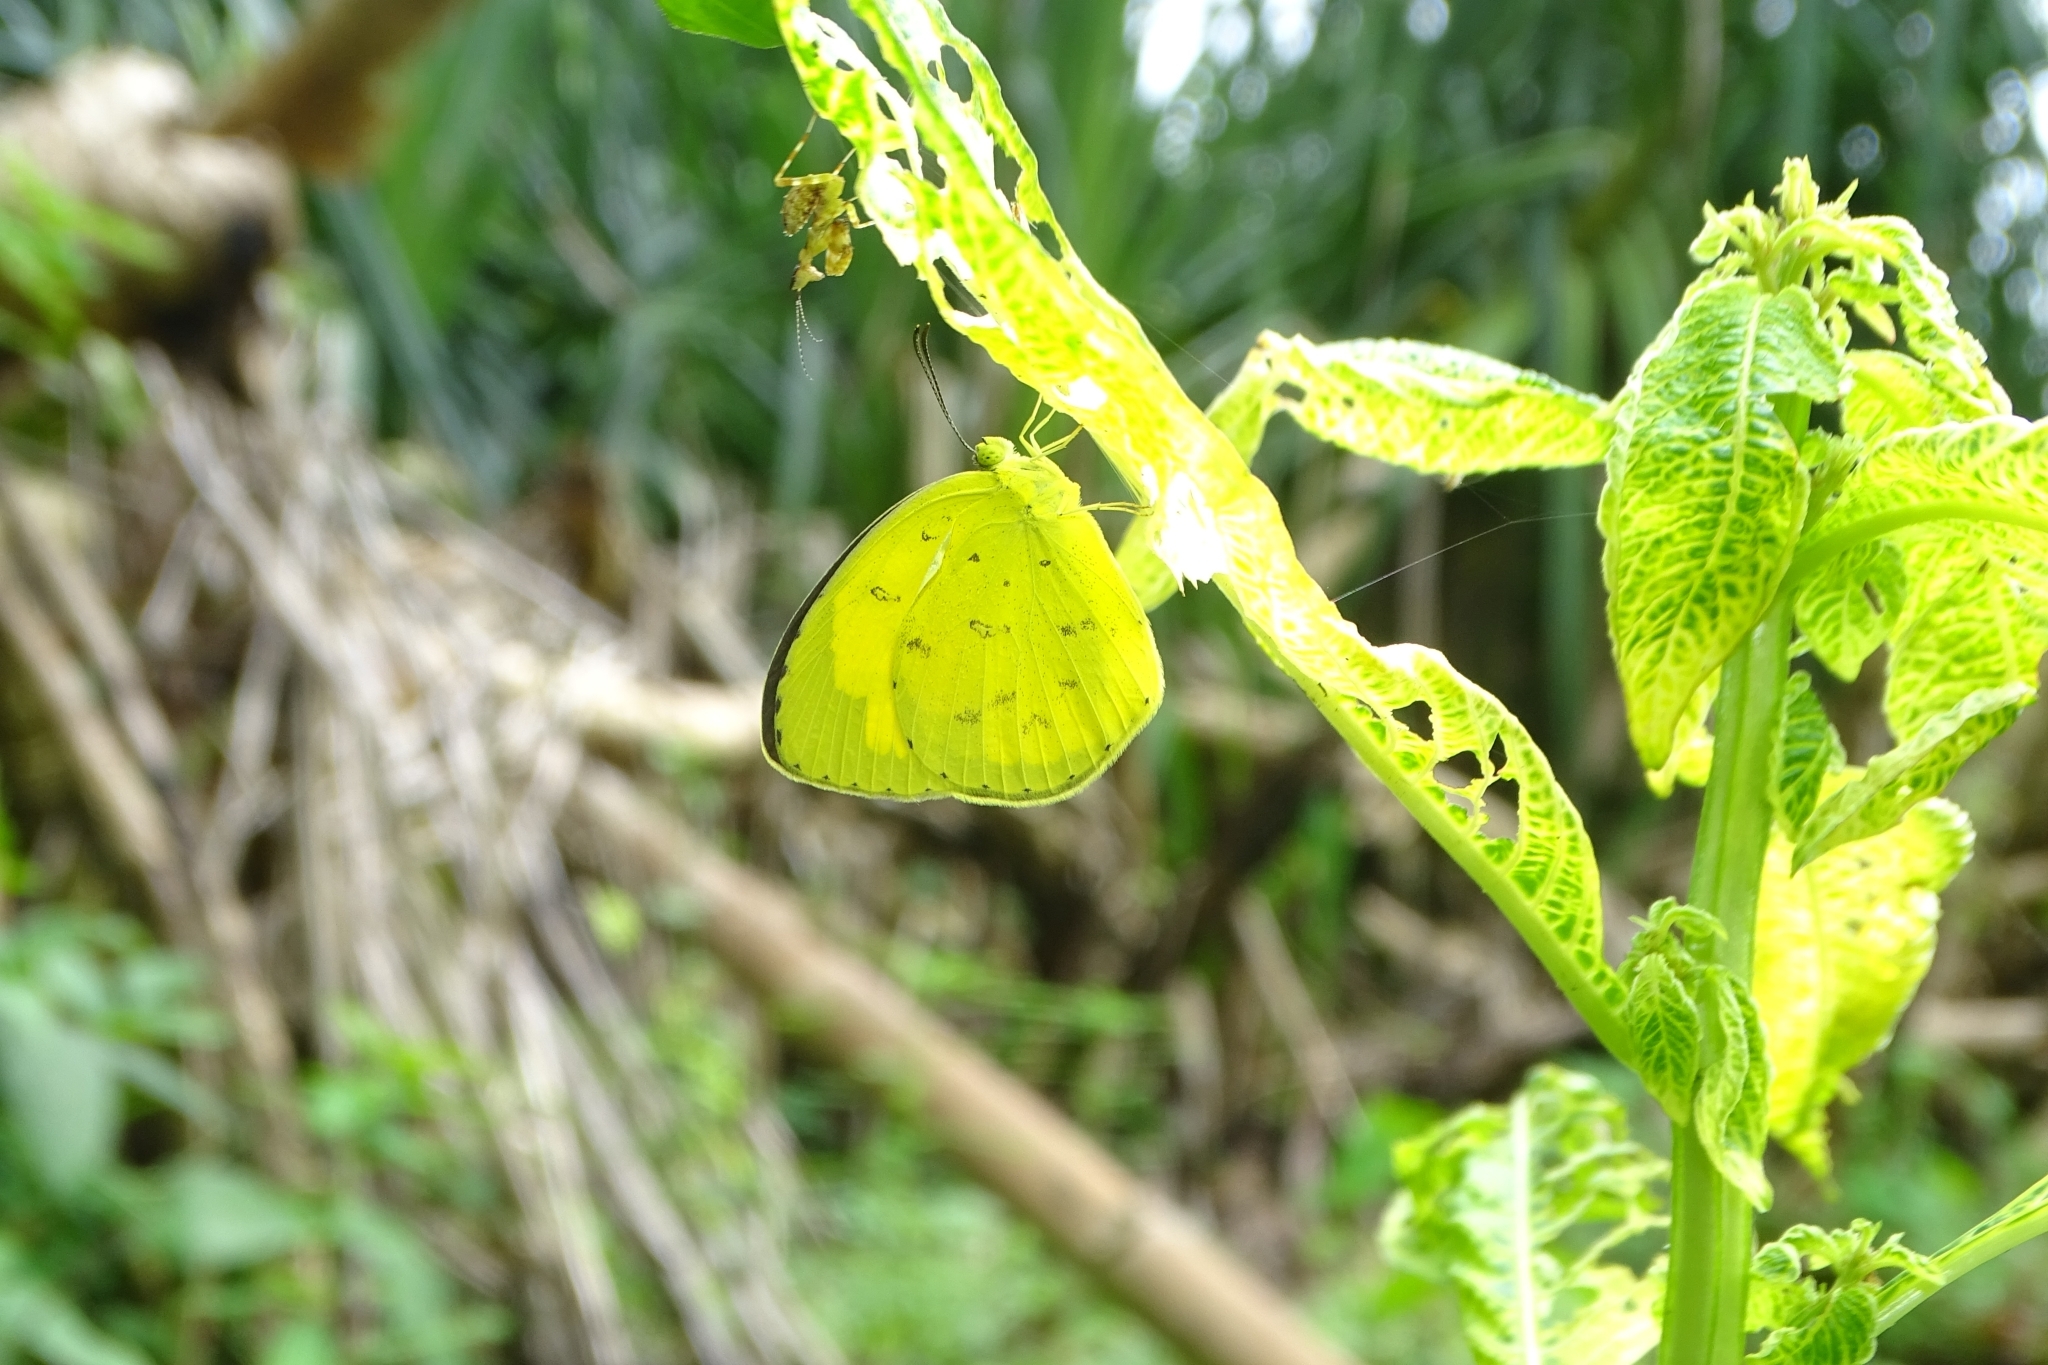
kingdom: Animalia
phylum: Arthropoda
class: Insecta
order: Lepidoptera
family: Pieridae
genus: Eurema
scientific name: Eurema hecabe
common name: Pale grass yellow
